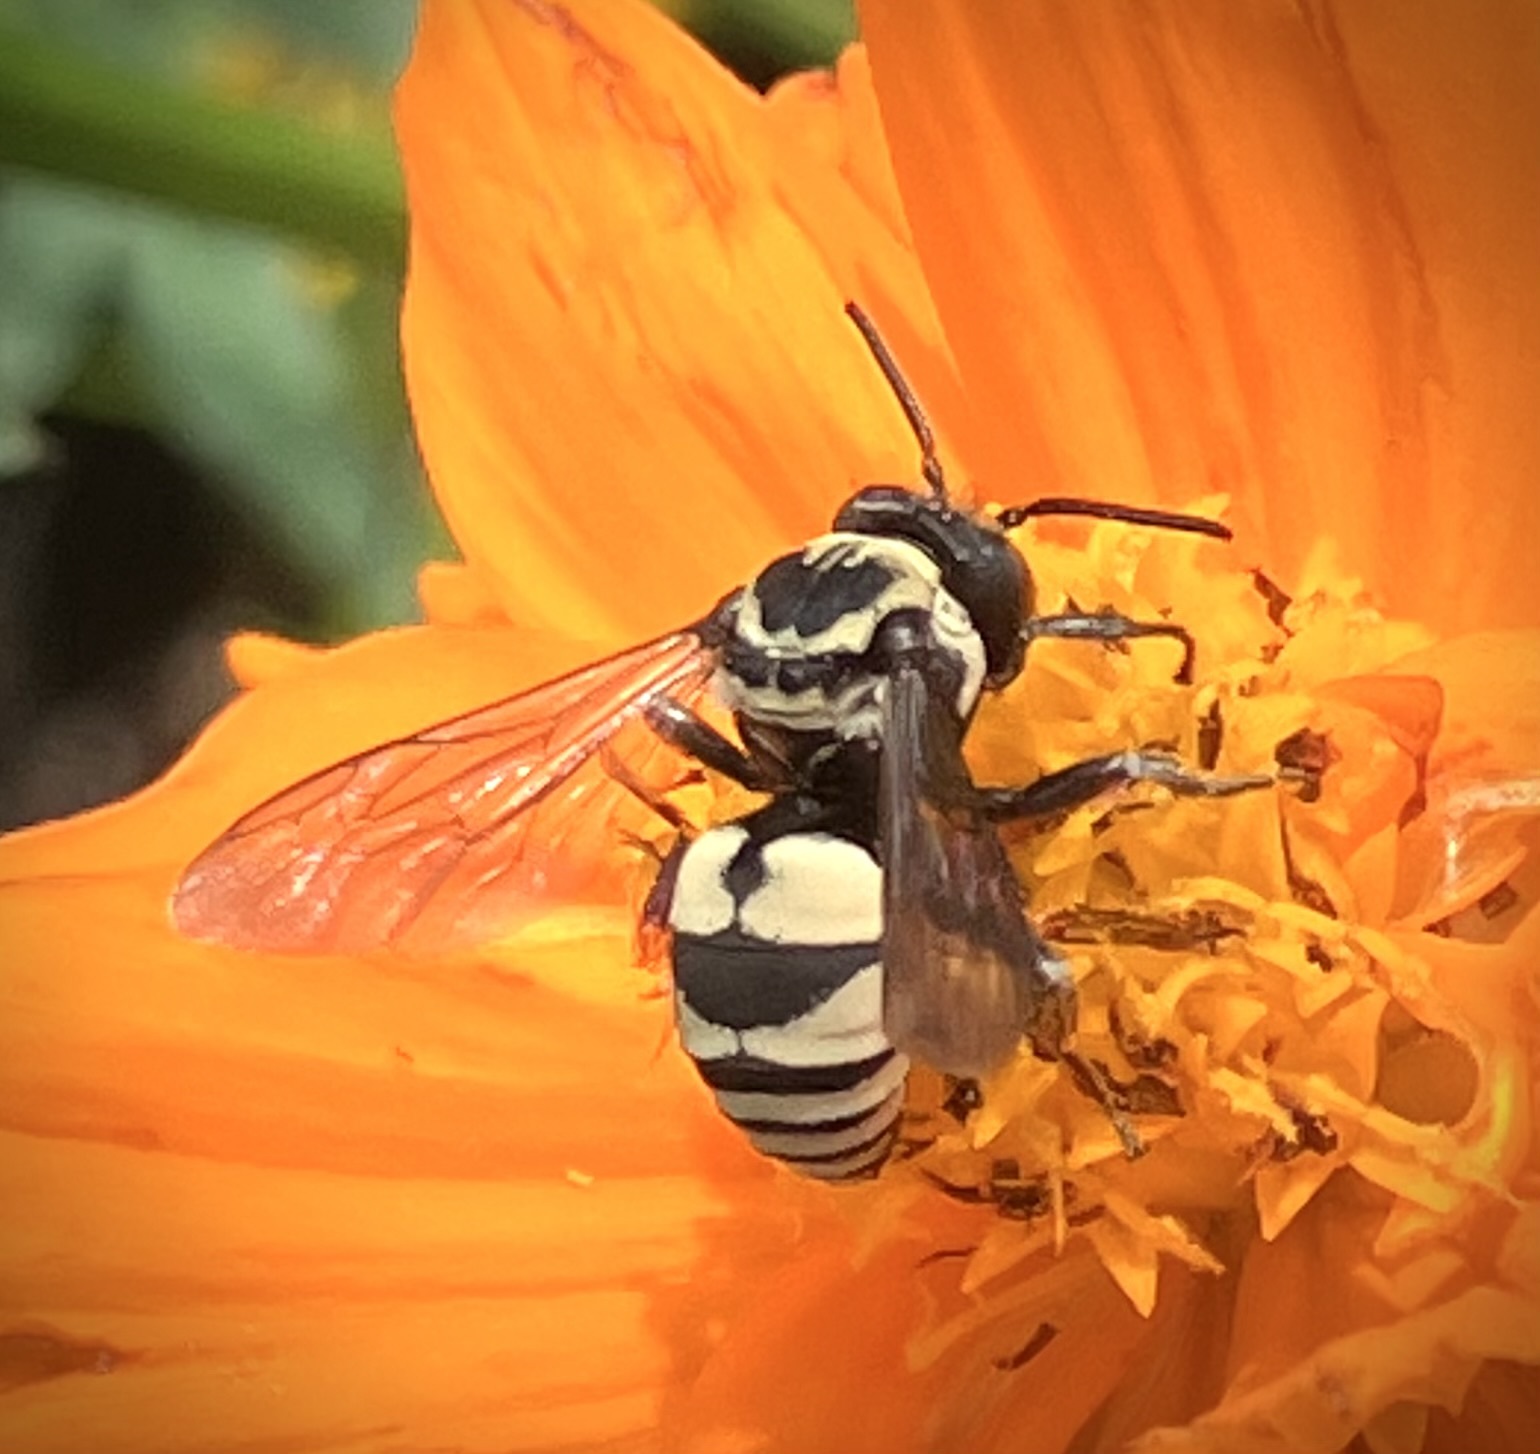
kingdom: Animalia
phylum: Arthropoda
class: Insecta
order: Hymenoptera
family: Apidae
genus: Triepeolus
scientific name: Triepeolus remigatus
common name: Squash longhorn-cuckoo
